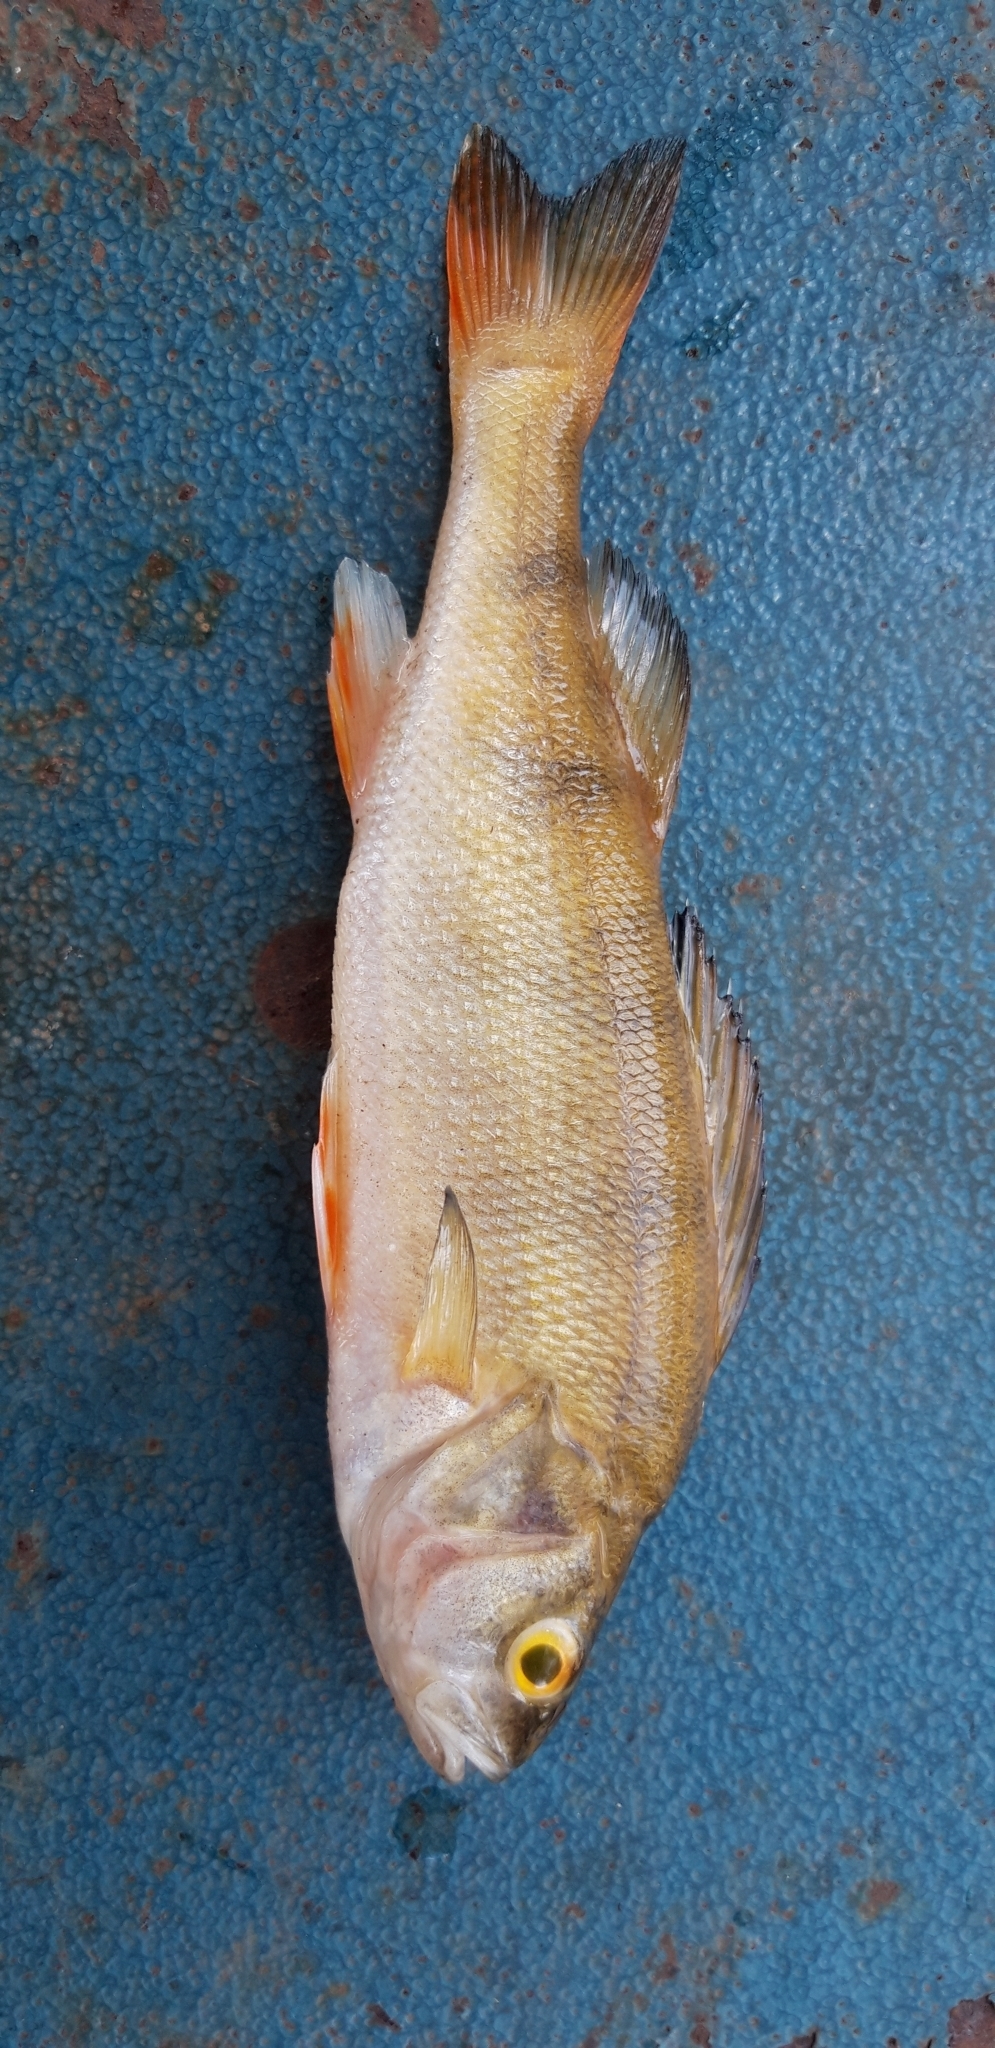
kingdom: Animalia
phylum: Chordata
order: Perciformes
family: Percidae
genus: Perca
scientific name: Perca fluviatilis
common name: Perch
